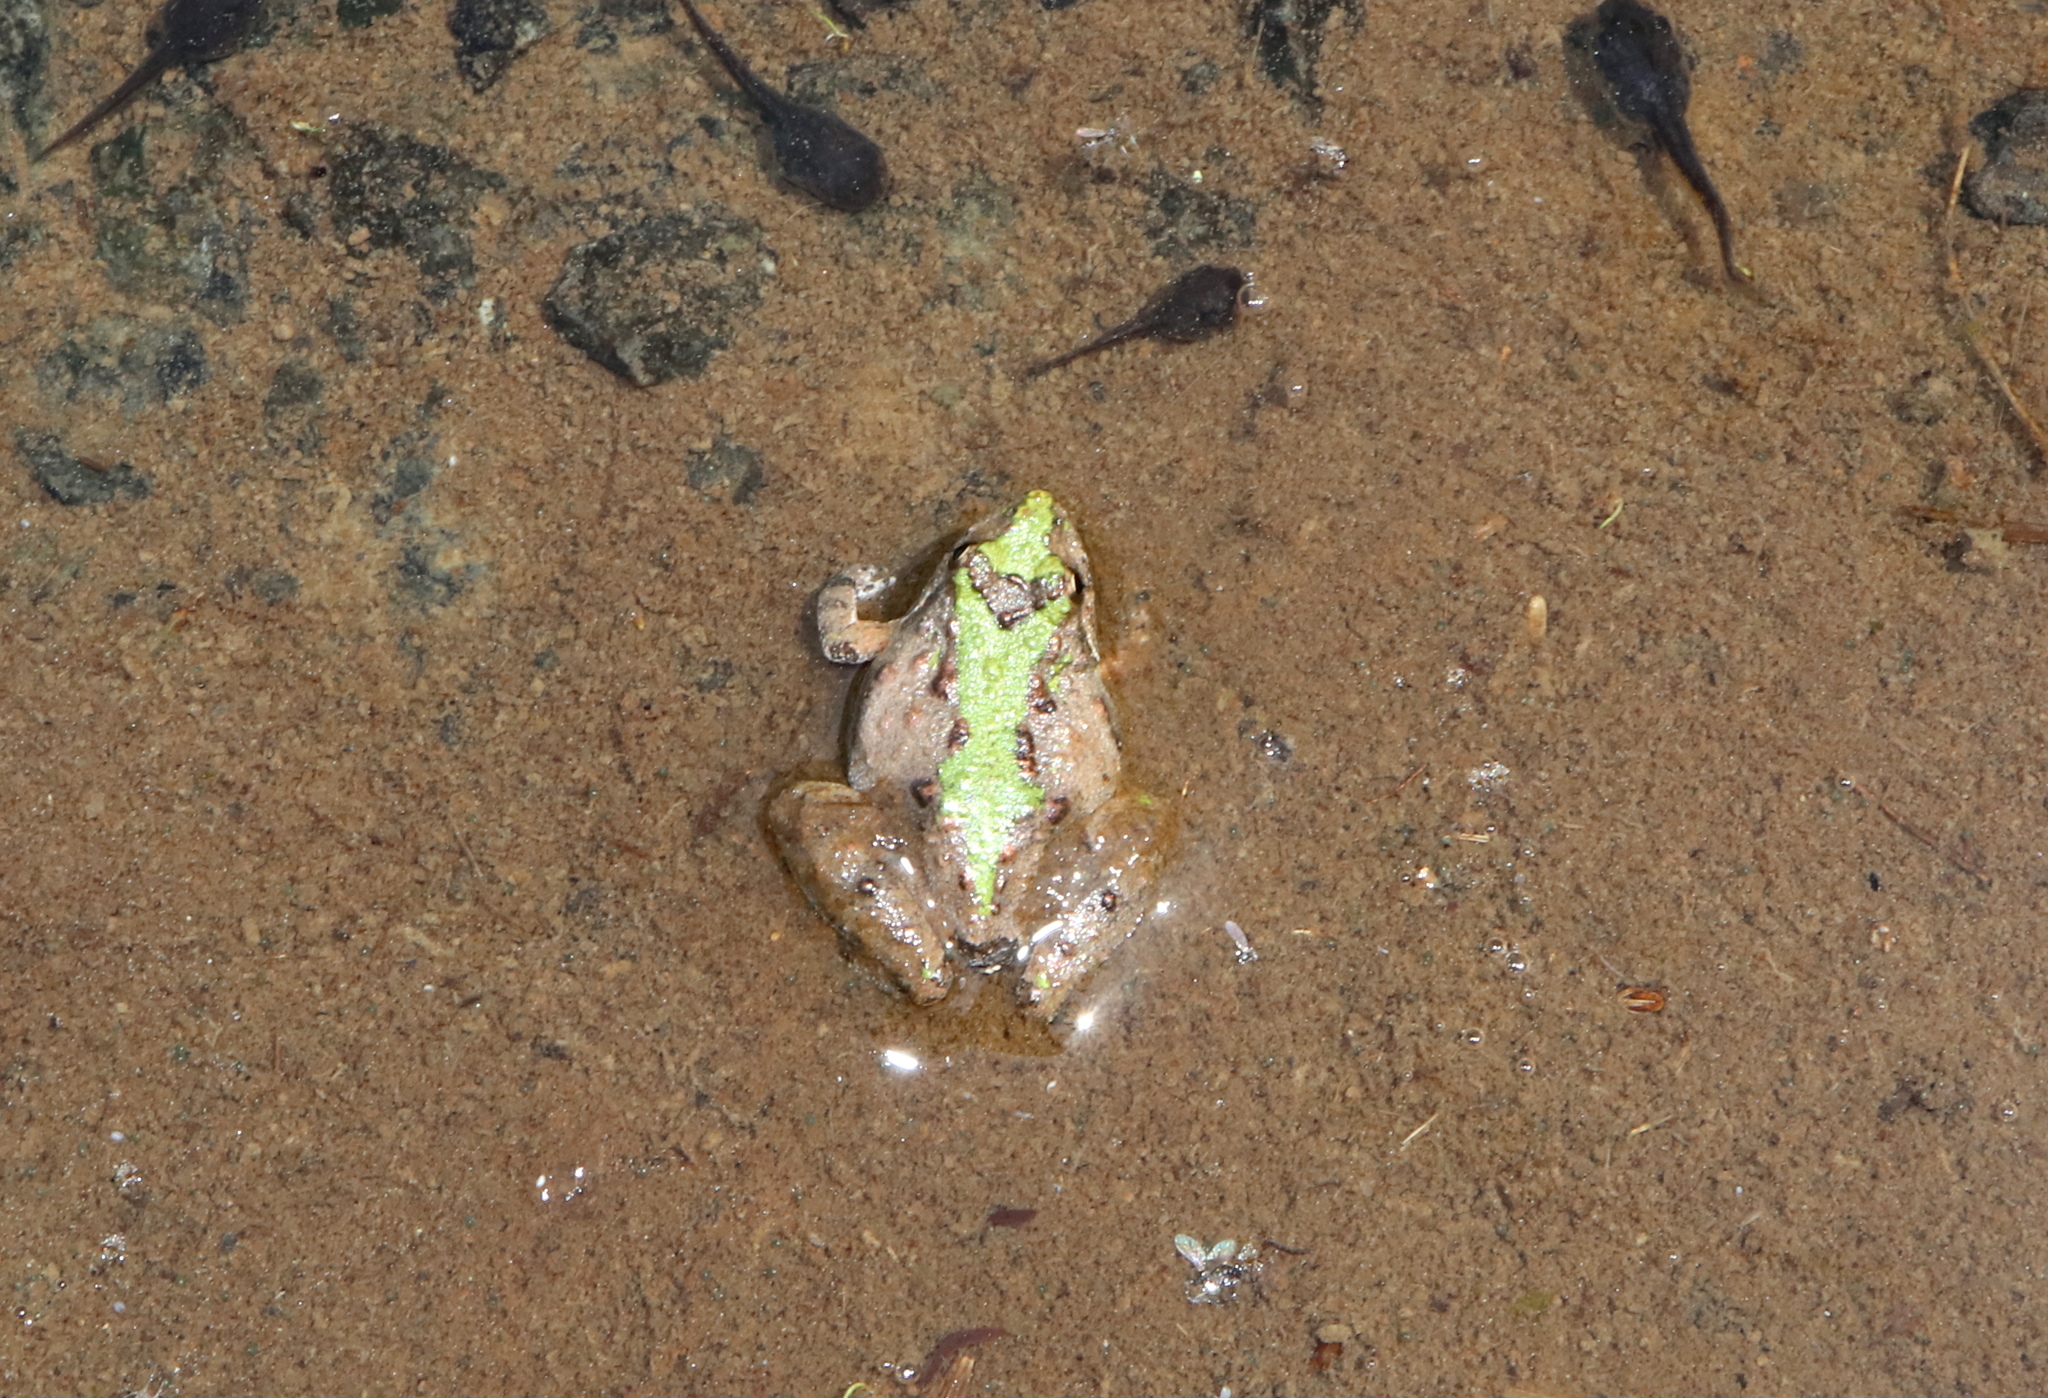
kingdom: Animalia
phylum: Chordata
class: Amphibia
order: Anura
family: Hylidae
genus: Acris
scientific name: Acris crepitans
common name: Northern cricket frog
